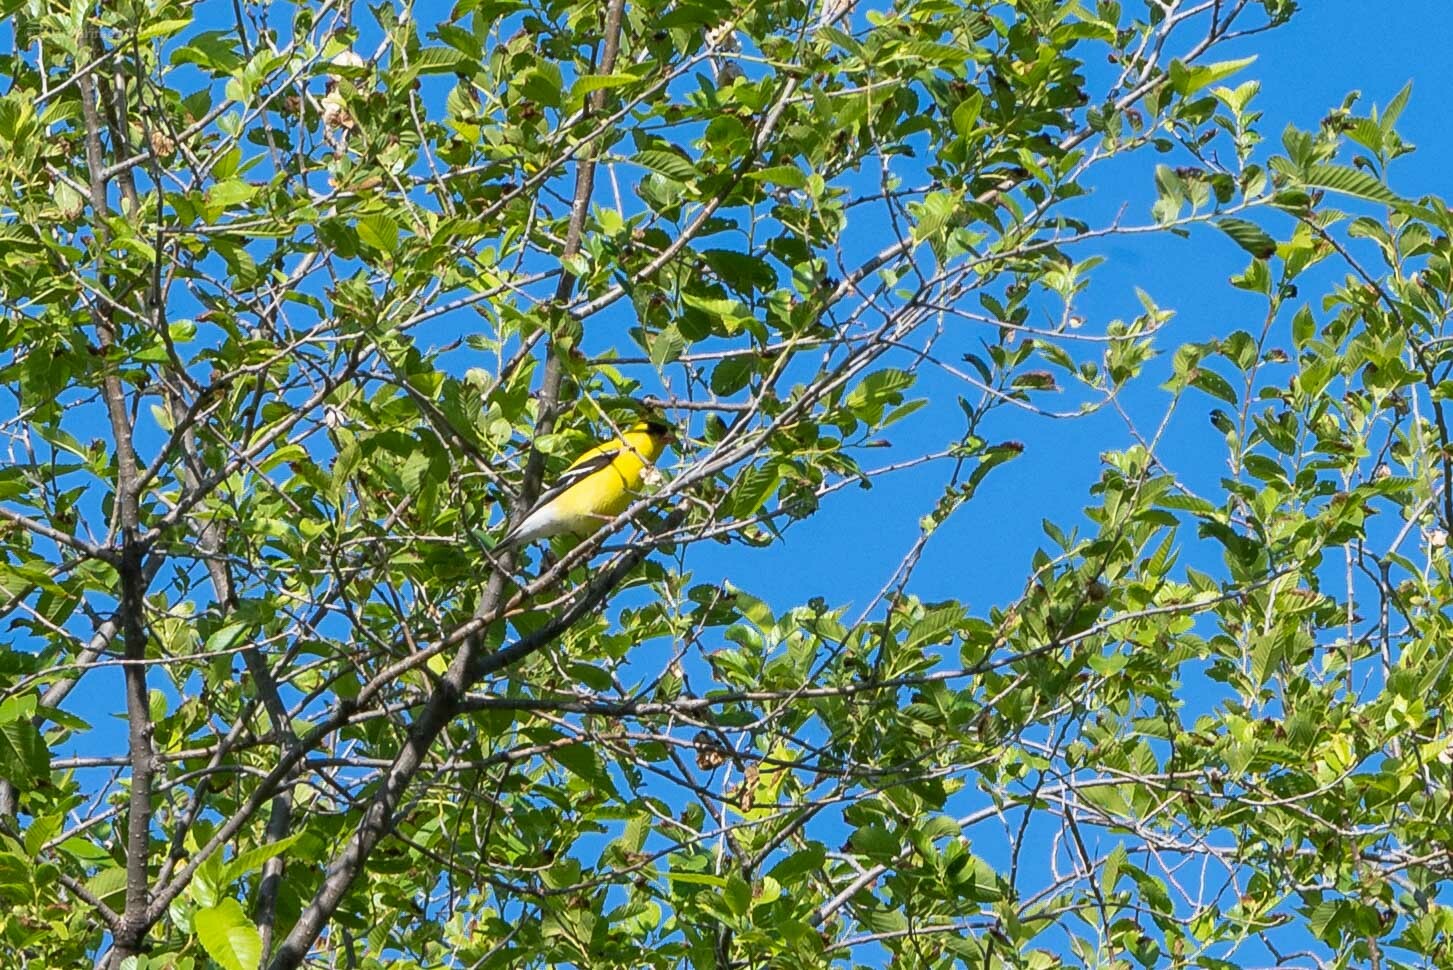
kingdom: Animalia
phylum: Chordata
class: Aves
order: Passeriformes
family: Fringillidae
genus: Spinus
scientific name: Spinus tristis
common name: American goldfinch
